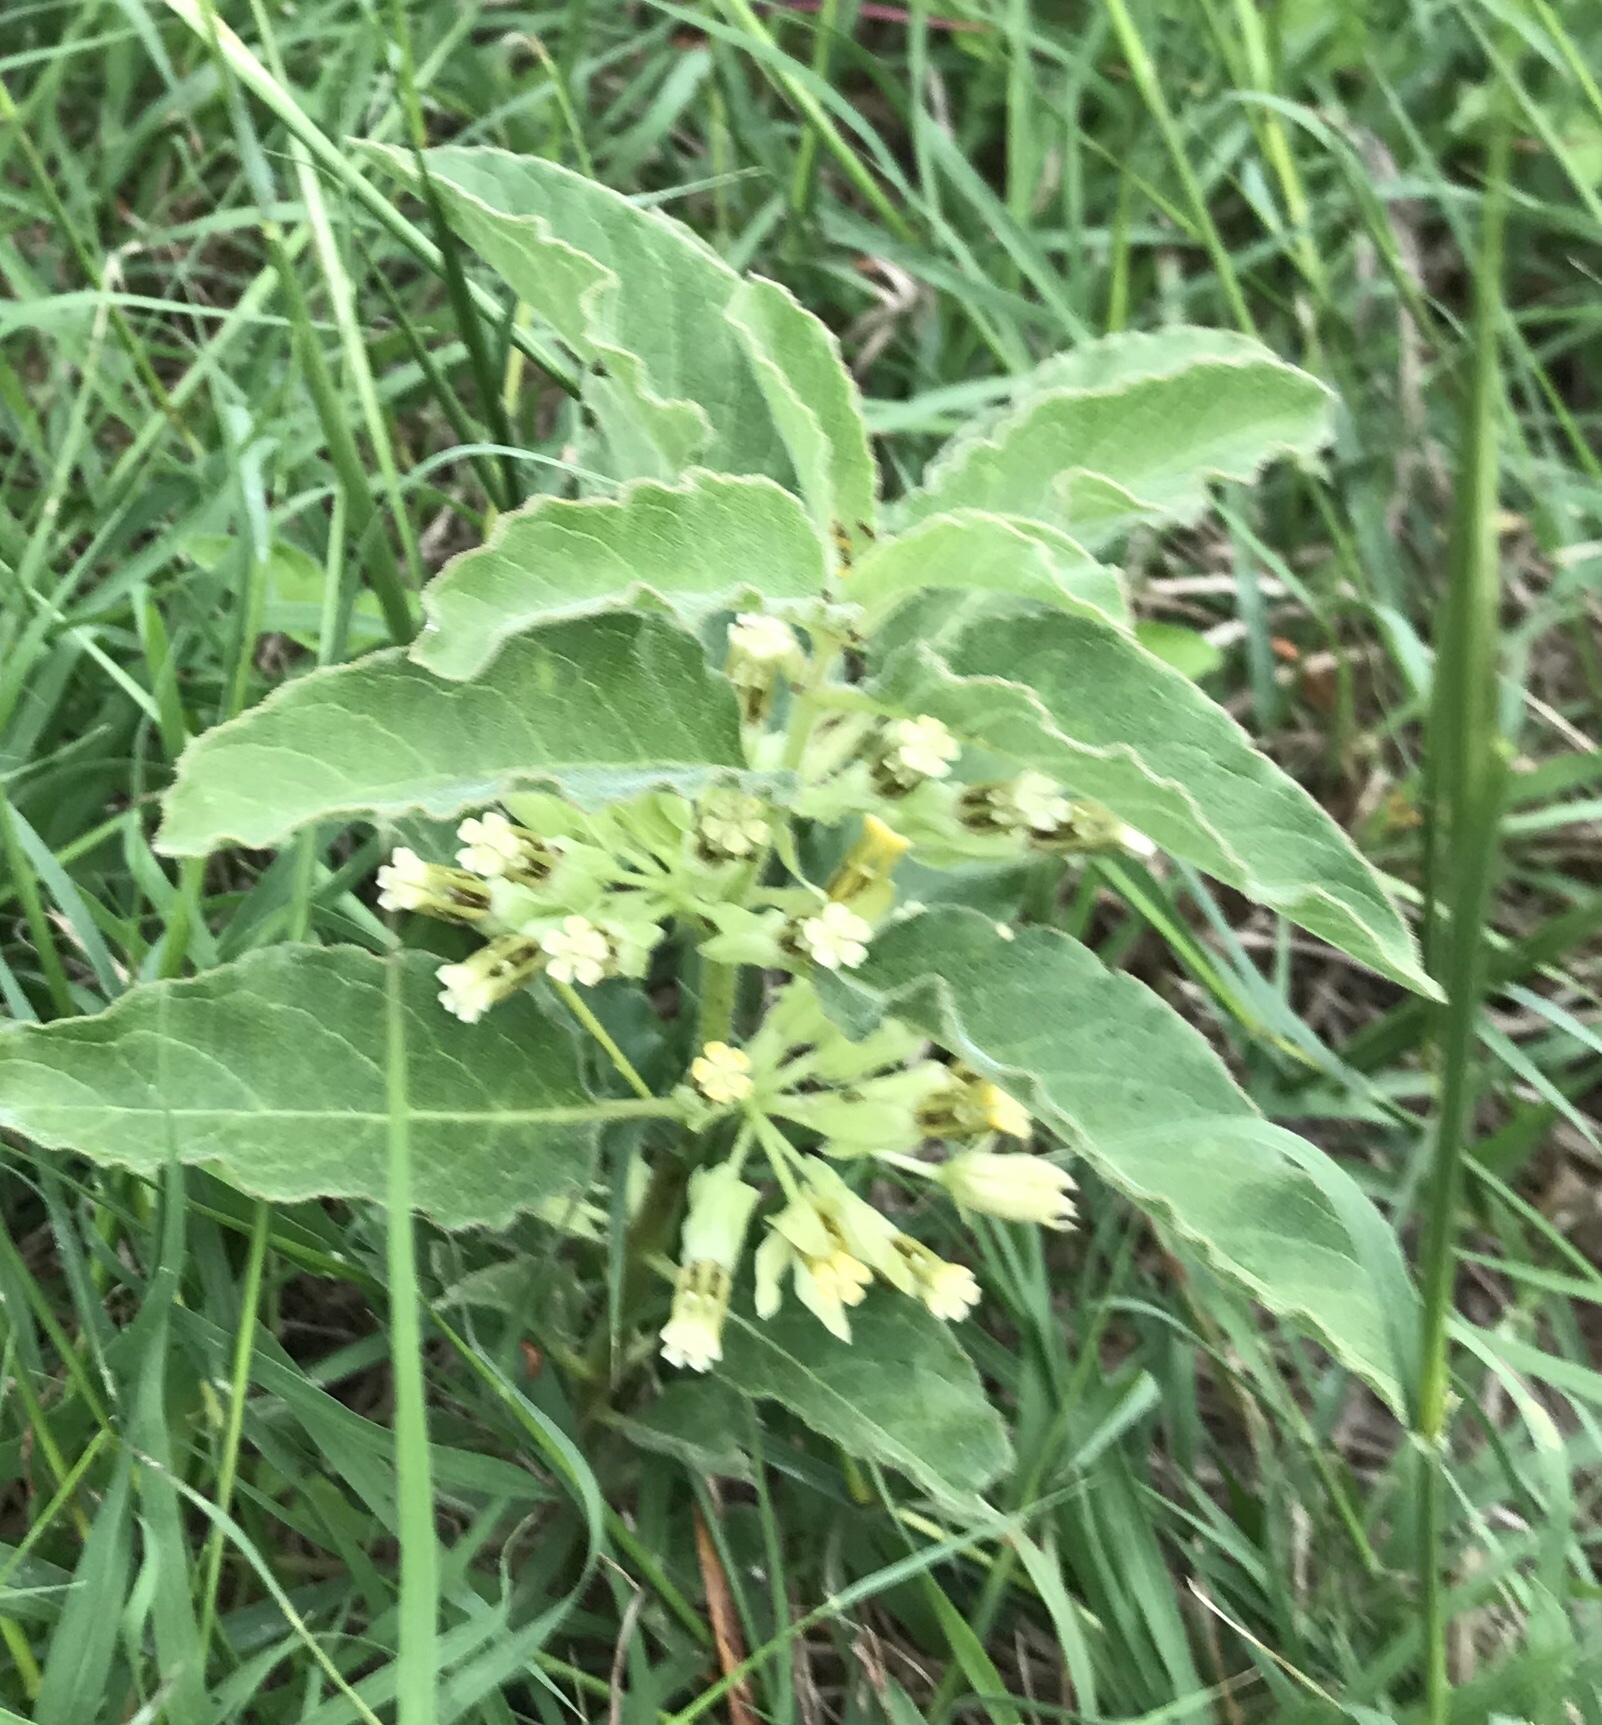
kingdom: Plantae
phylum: Tracheophyta
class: Magnoliopsida
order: Gentianales
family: Apocynaceae
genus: Asclepias
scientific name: Asclepias oenotheroides
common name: Zizotes milkweed
